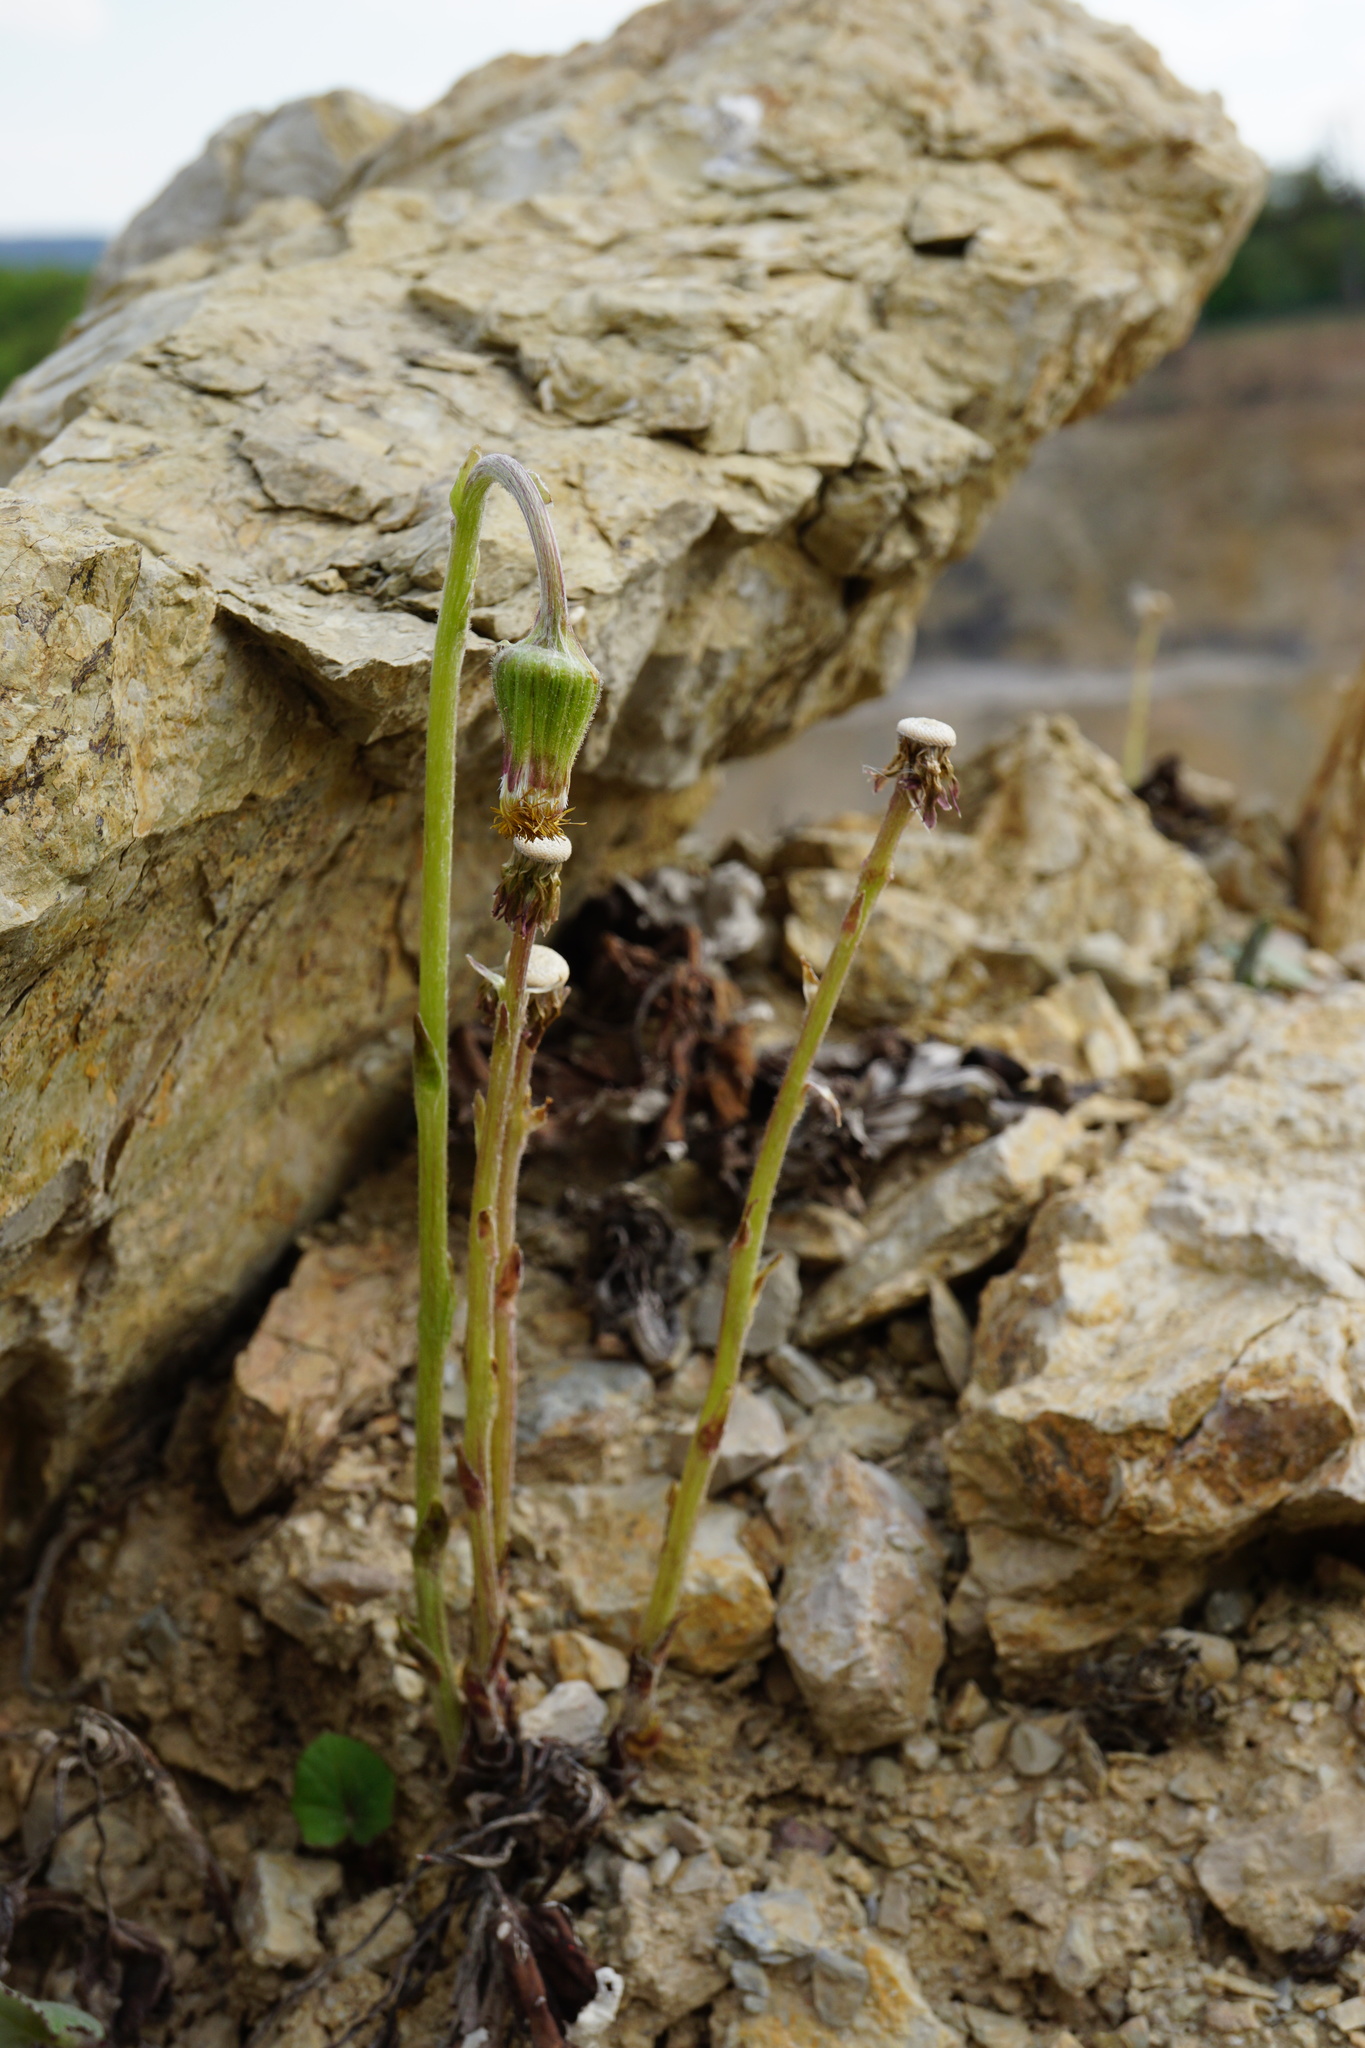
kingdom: Plantae
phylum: Tracheophyta
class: Magnoliopsida
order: Asterales
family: Asteraceae
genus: Tussilago
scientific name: Tussilago farfara
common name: Coltsfoot
